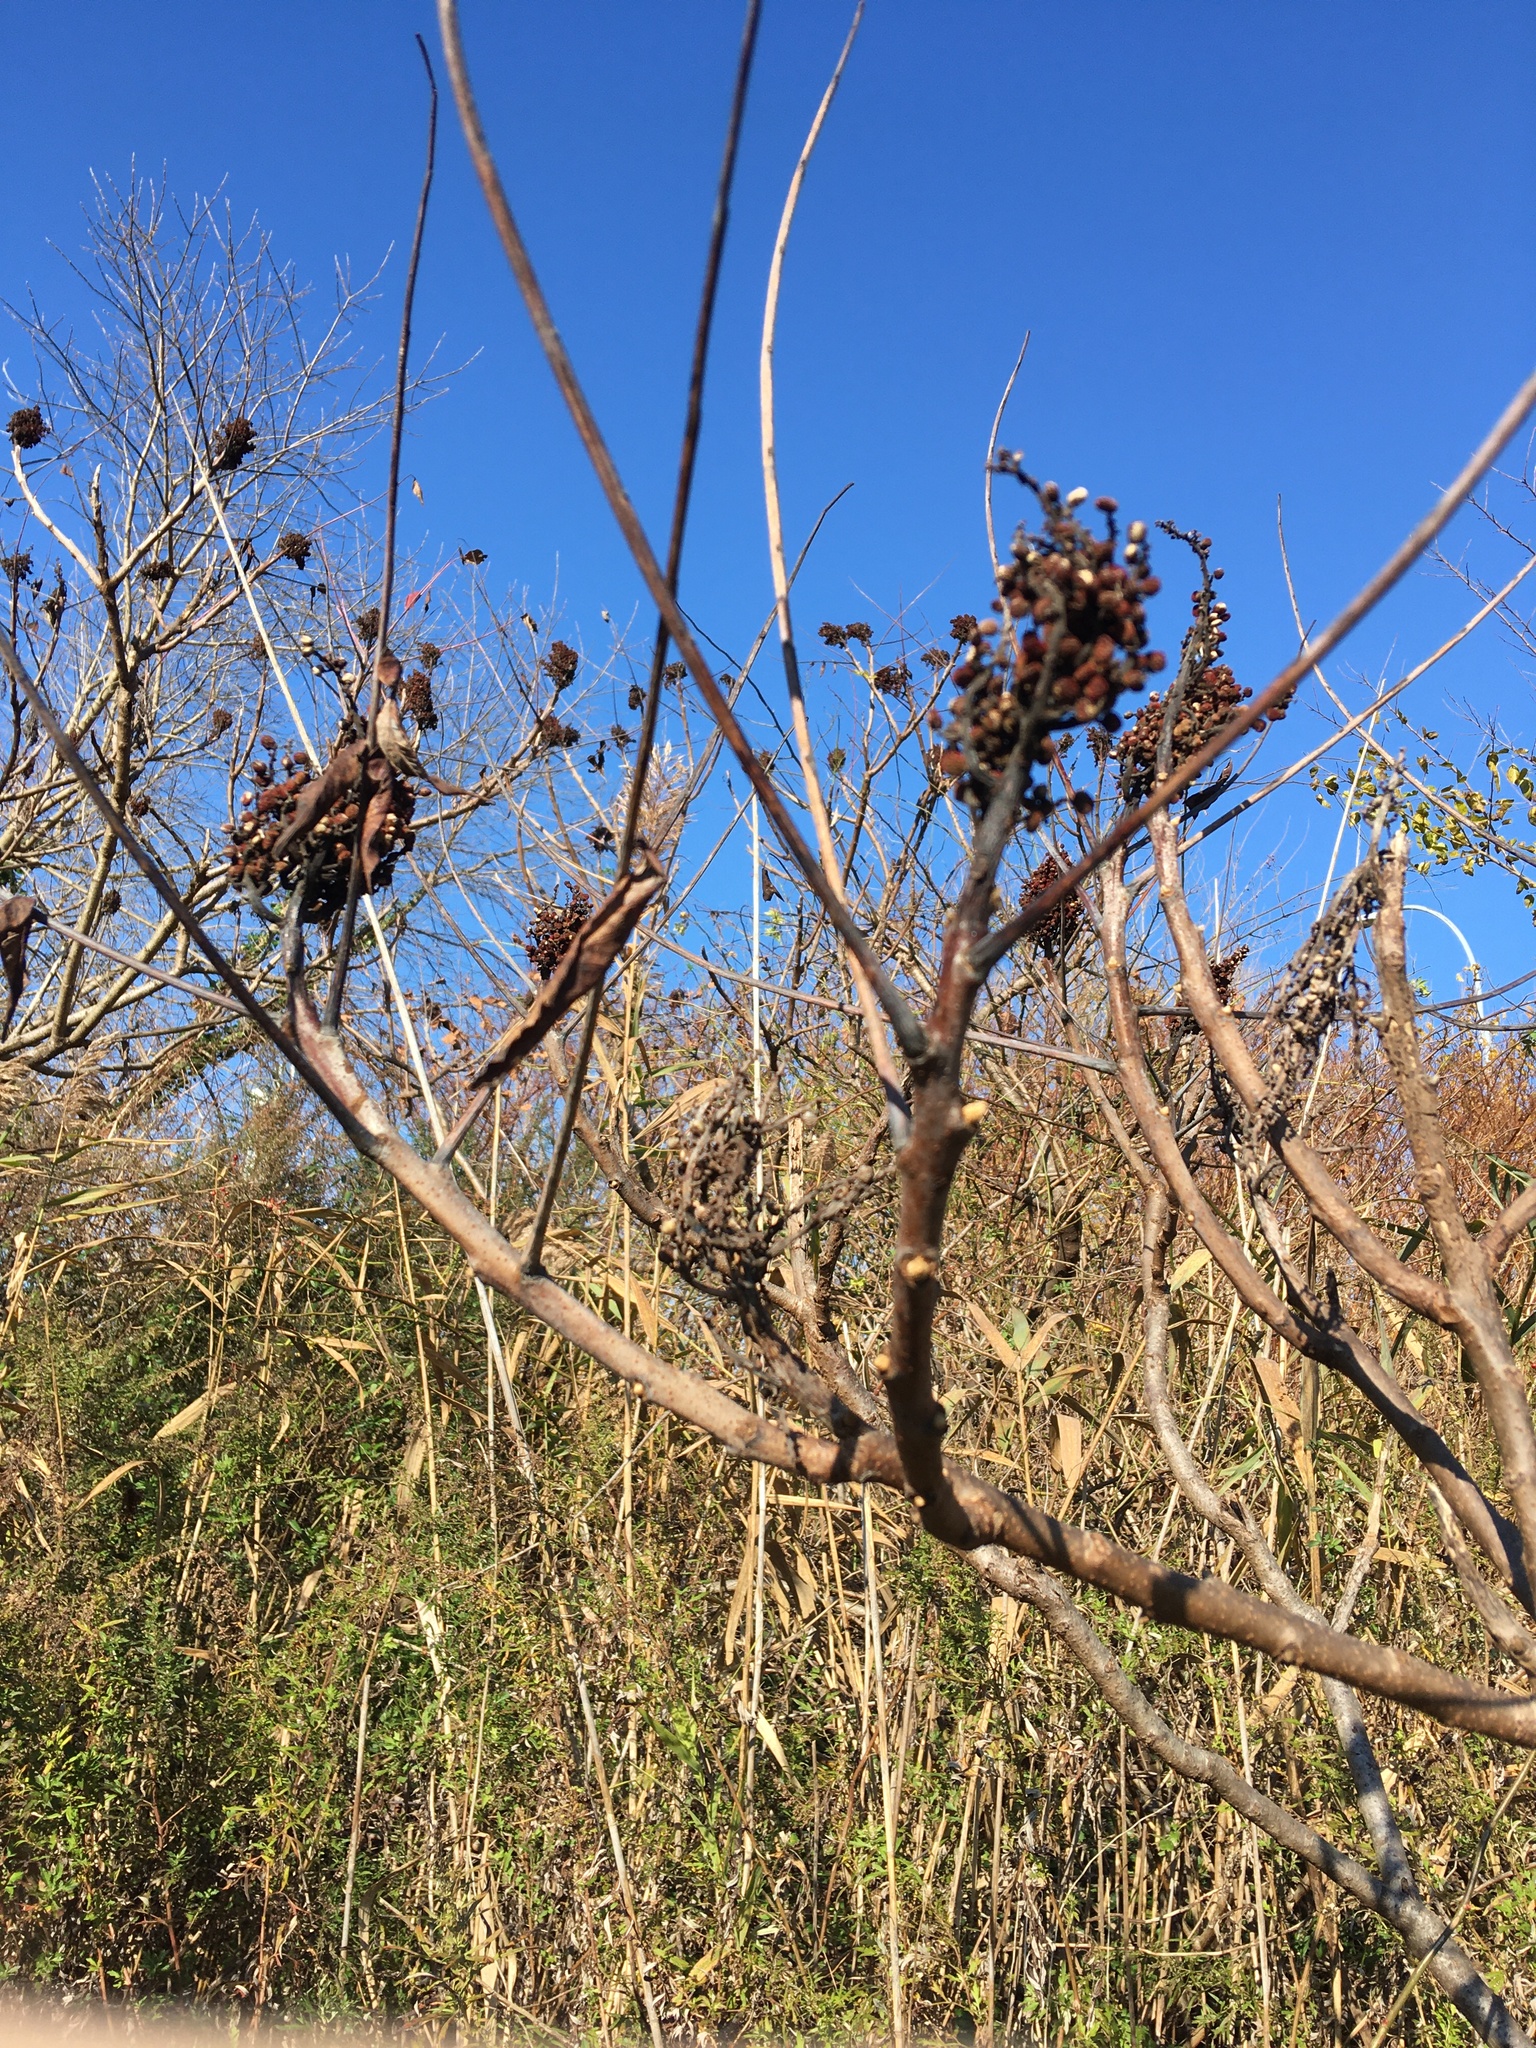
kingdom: Plantae
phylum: Tracheophyta
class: Magnoliopsida
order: Sapindales
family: Anacardiaceae
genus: Rhus
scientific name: Rhus glabra
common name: Scarlet sumac
